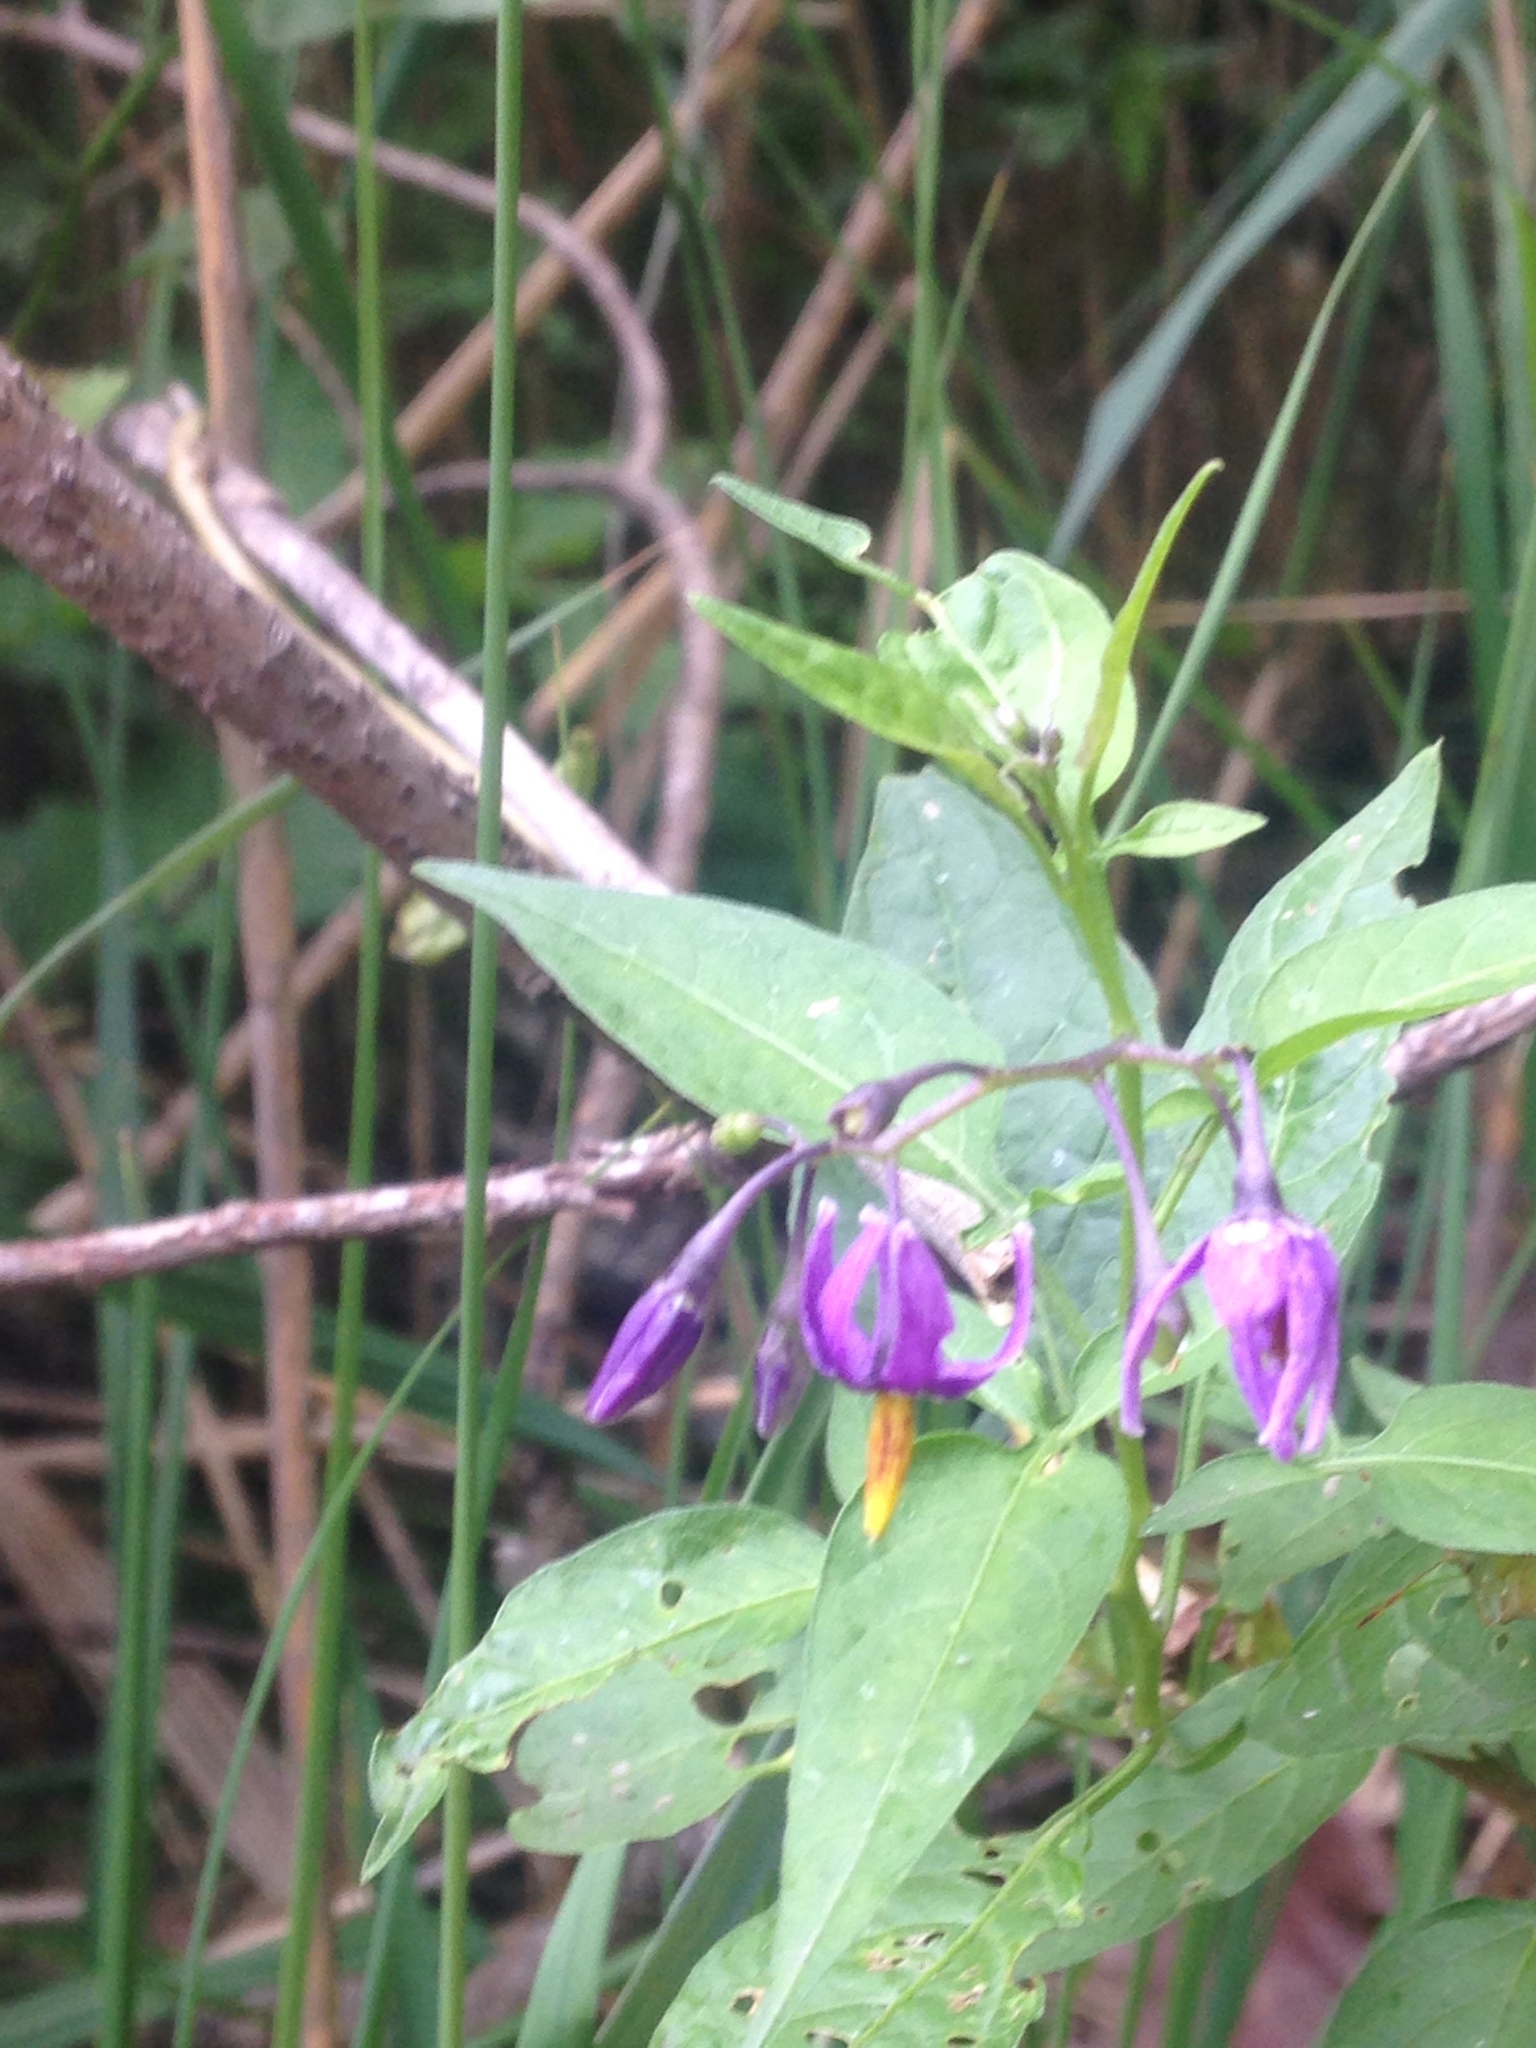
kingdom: Plantae
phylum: Tracheophyta
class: Magnoliopsida
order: Solanales
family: Solanaceae
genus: Solanum
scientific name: Solanum dulcamara
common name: Climbing nightshade
